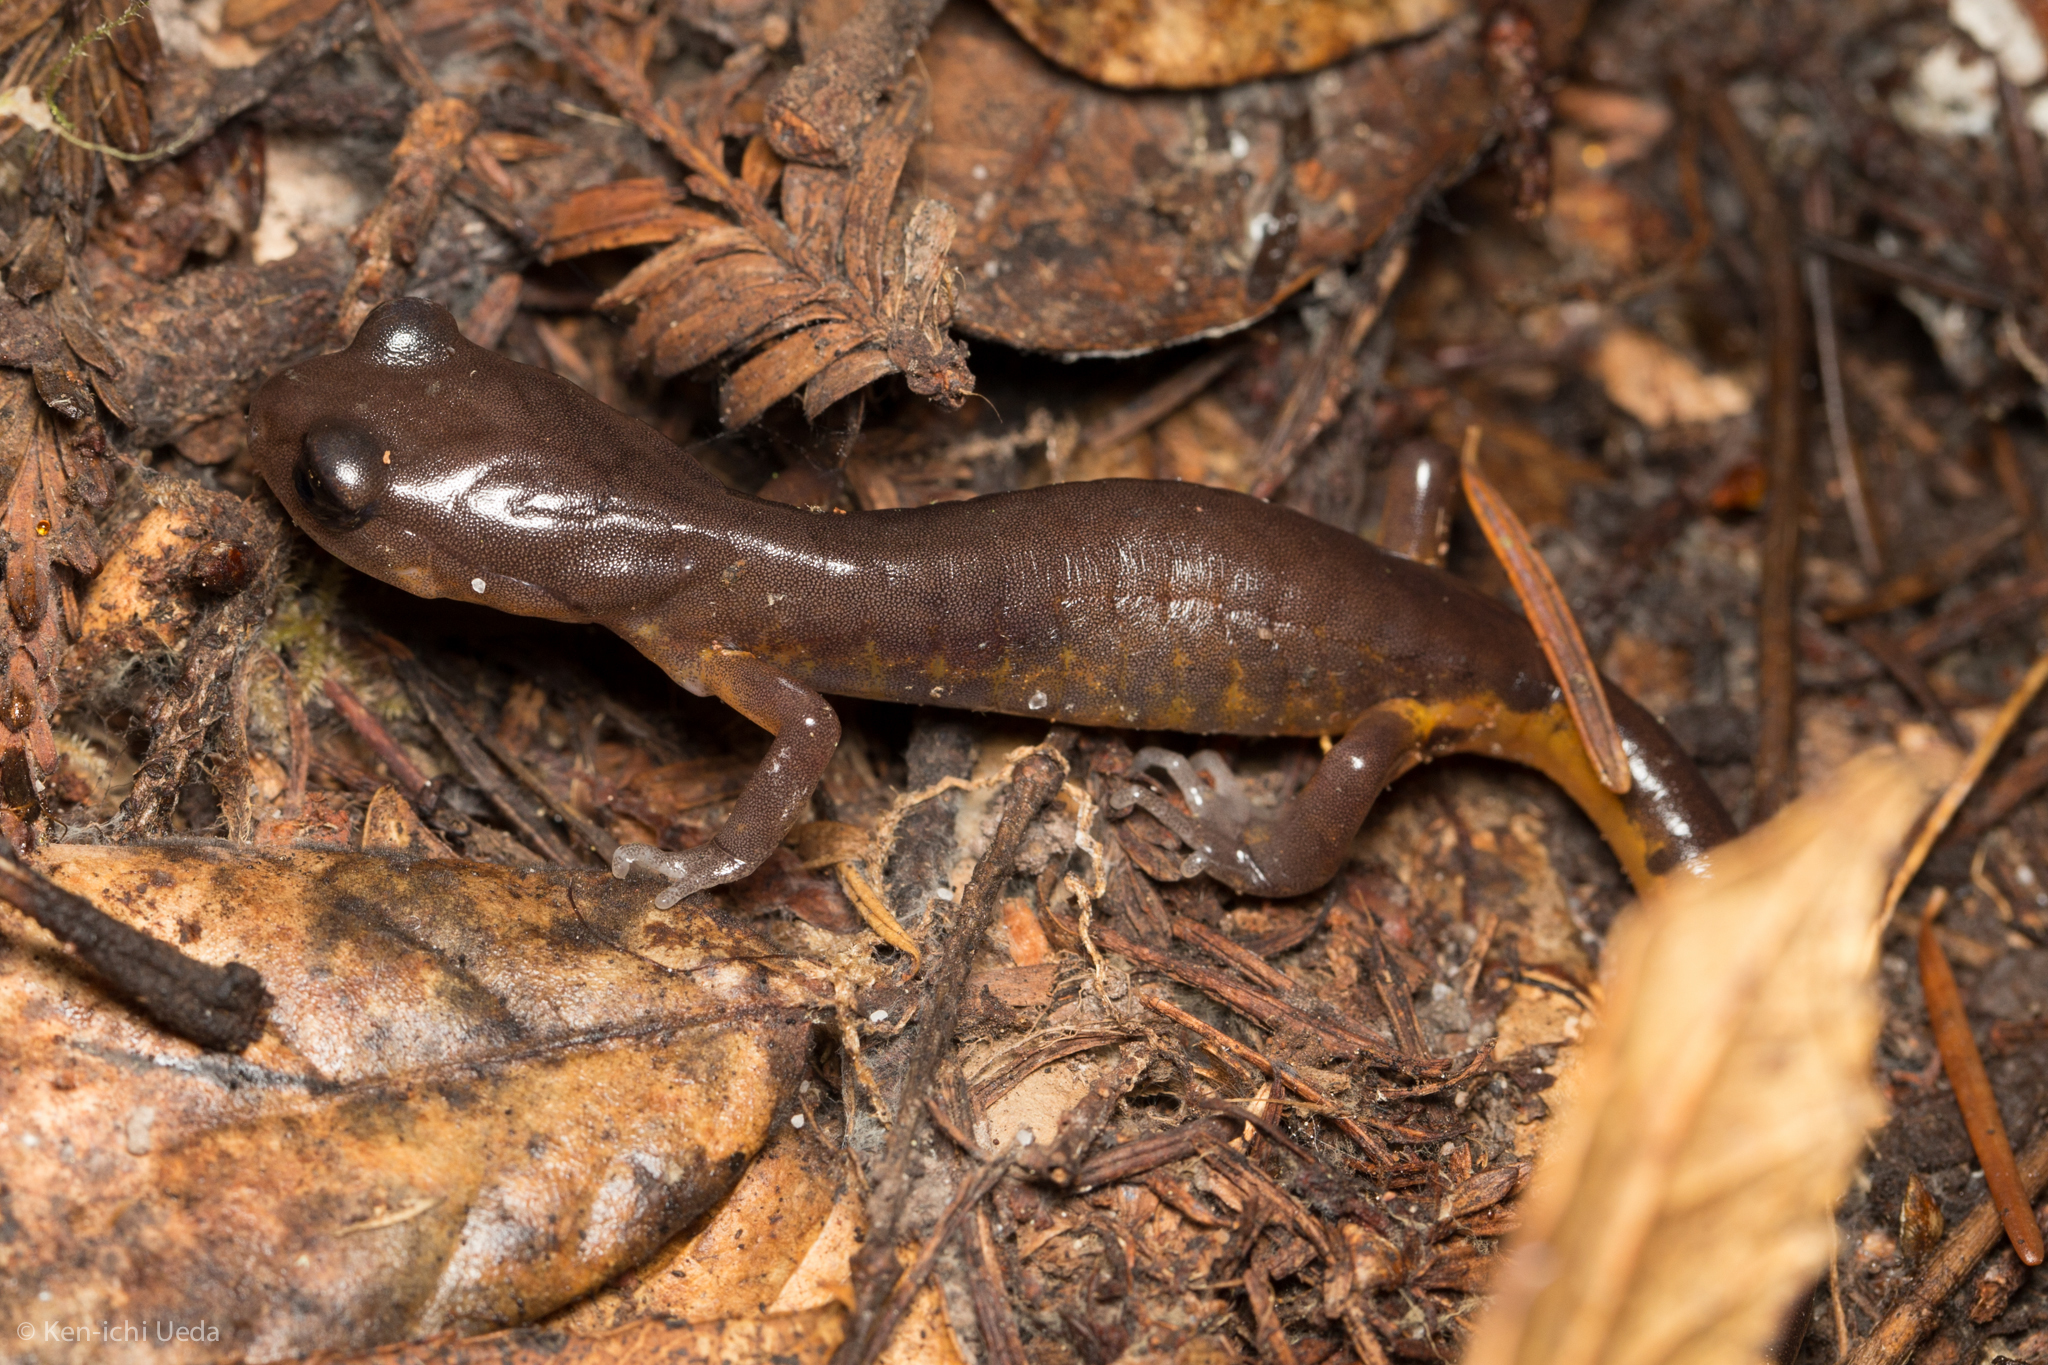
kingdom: Animalia
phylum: Chordata
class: Amphibia
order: Caudata
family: Plethodontidae
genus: Ensatina
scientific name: Ensatina eschscholtzii
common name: Ensatina
